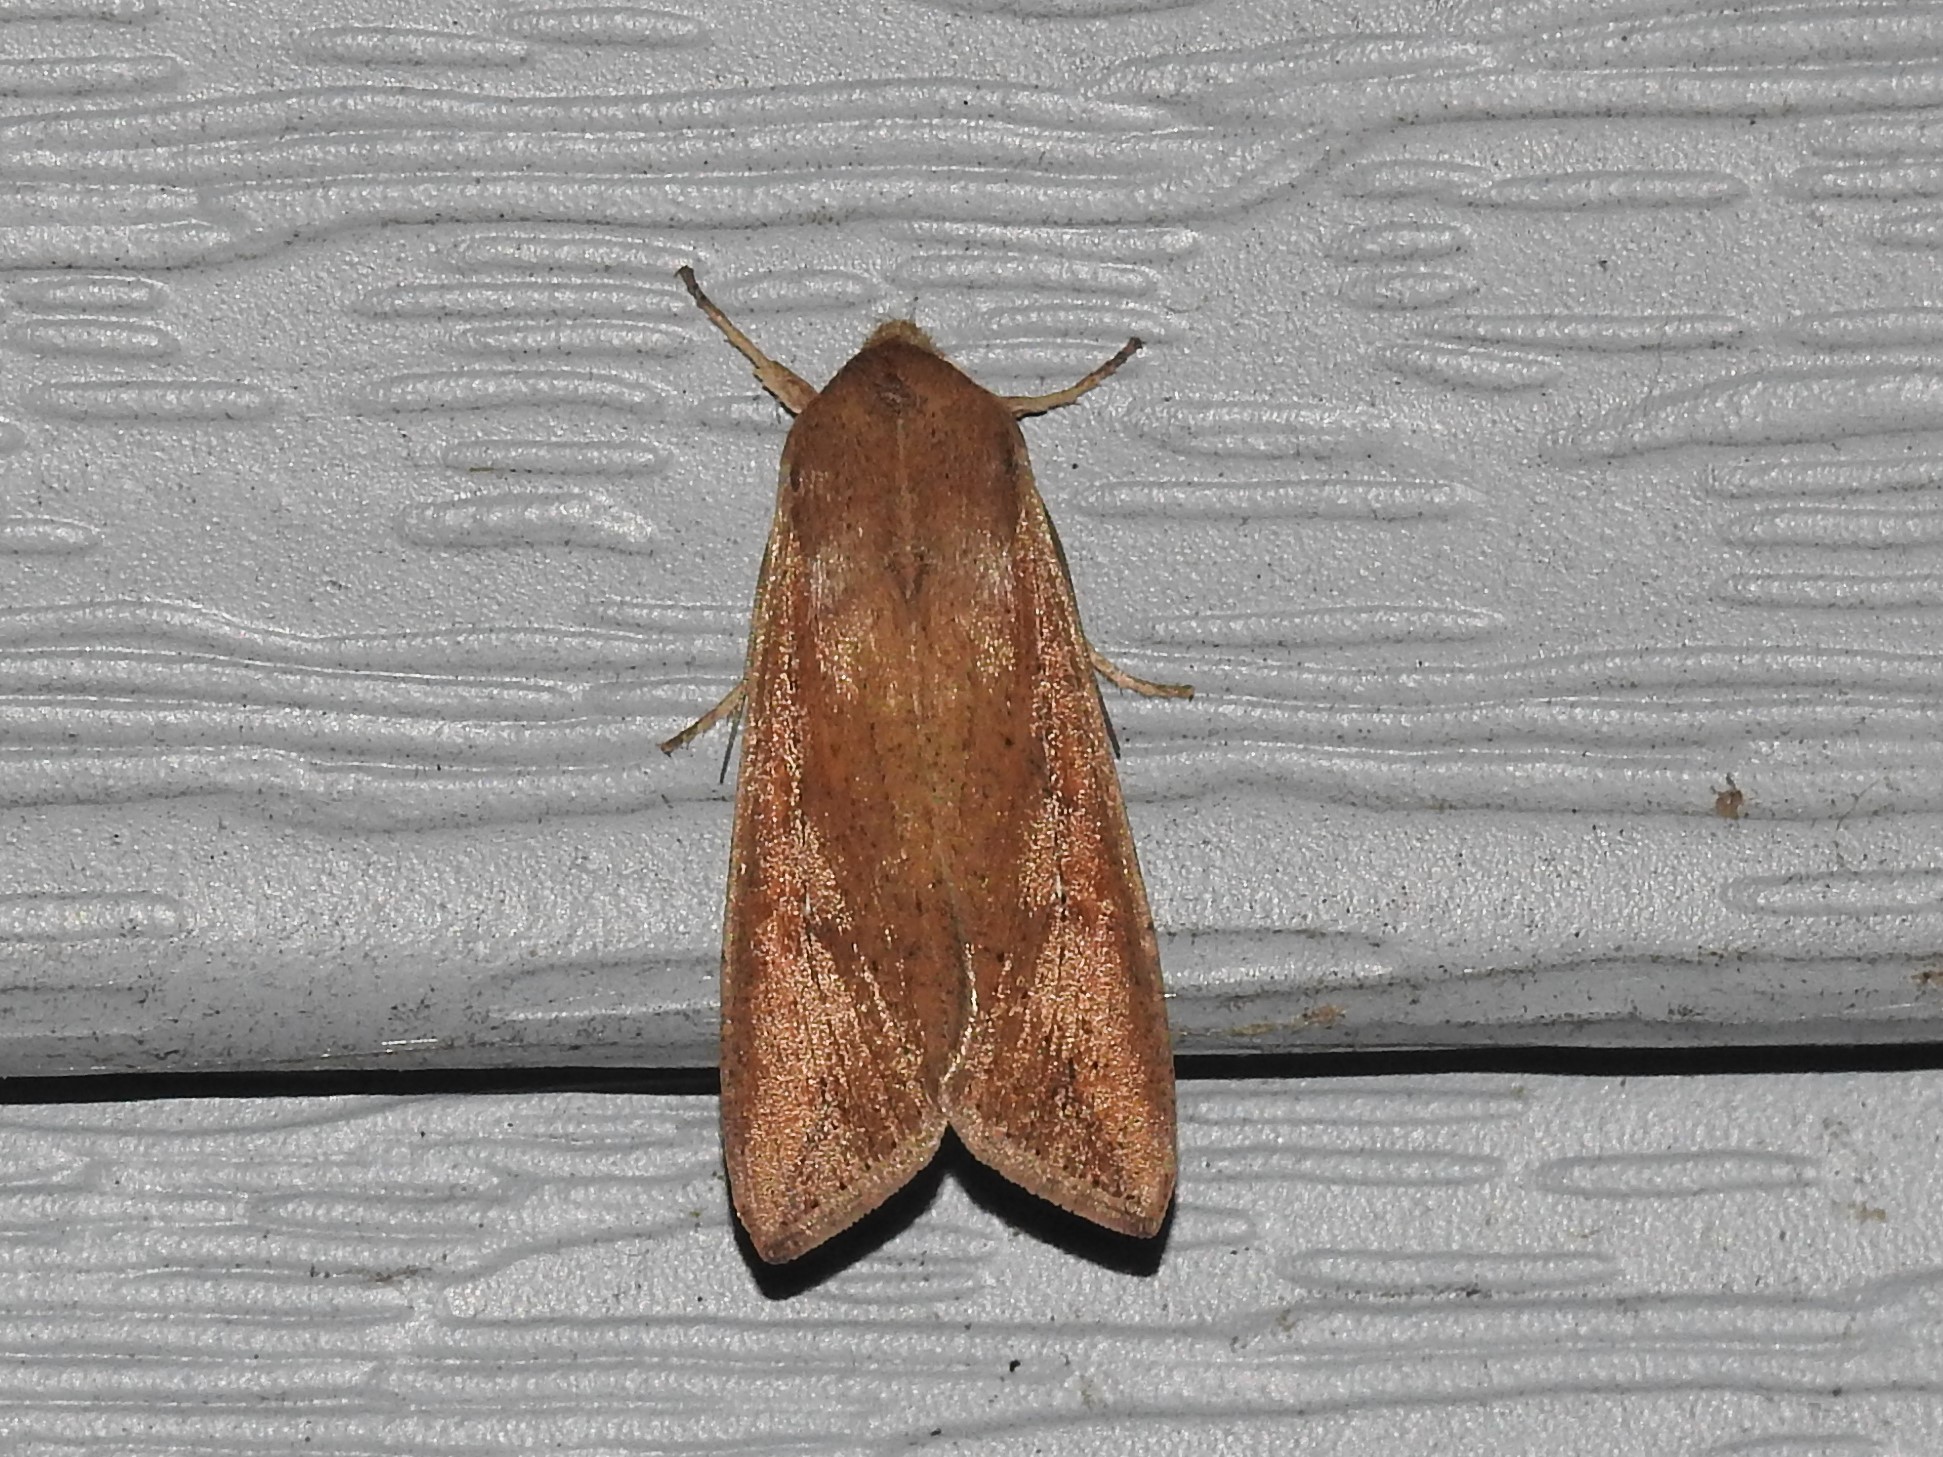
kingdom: Animalia
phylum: Arthropoda
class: Insecta
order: Lepidoptera
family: Noctuidae
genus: Mythimna
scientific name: Mythimna unipuncta
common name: White-speck
